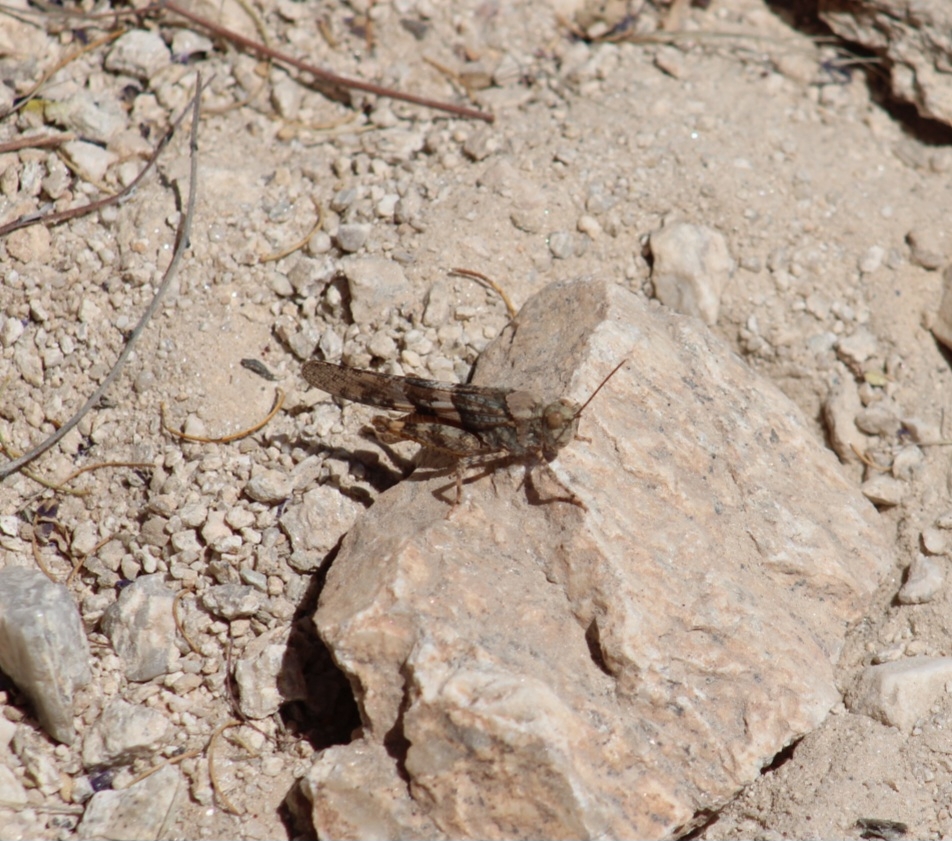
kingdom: Animalia
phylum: Arthropoda
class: Insecta
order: Orthoptera
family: Acrididae
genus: Trimerotropis
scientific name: Trimerotropis pallidipennis
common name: Pallid-winged grasshopper
